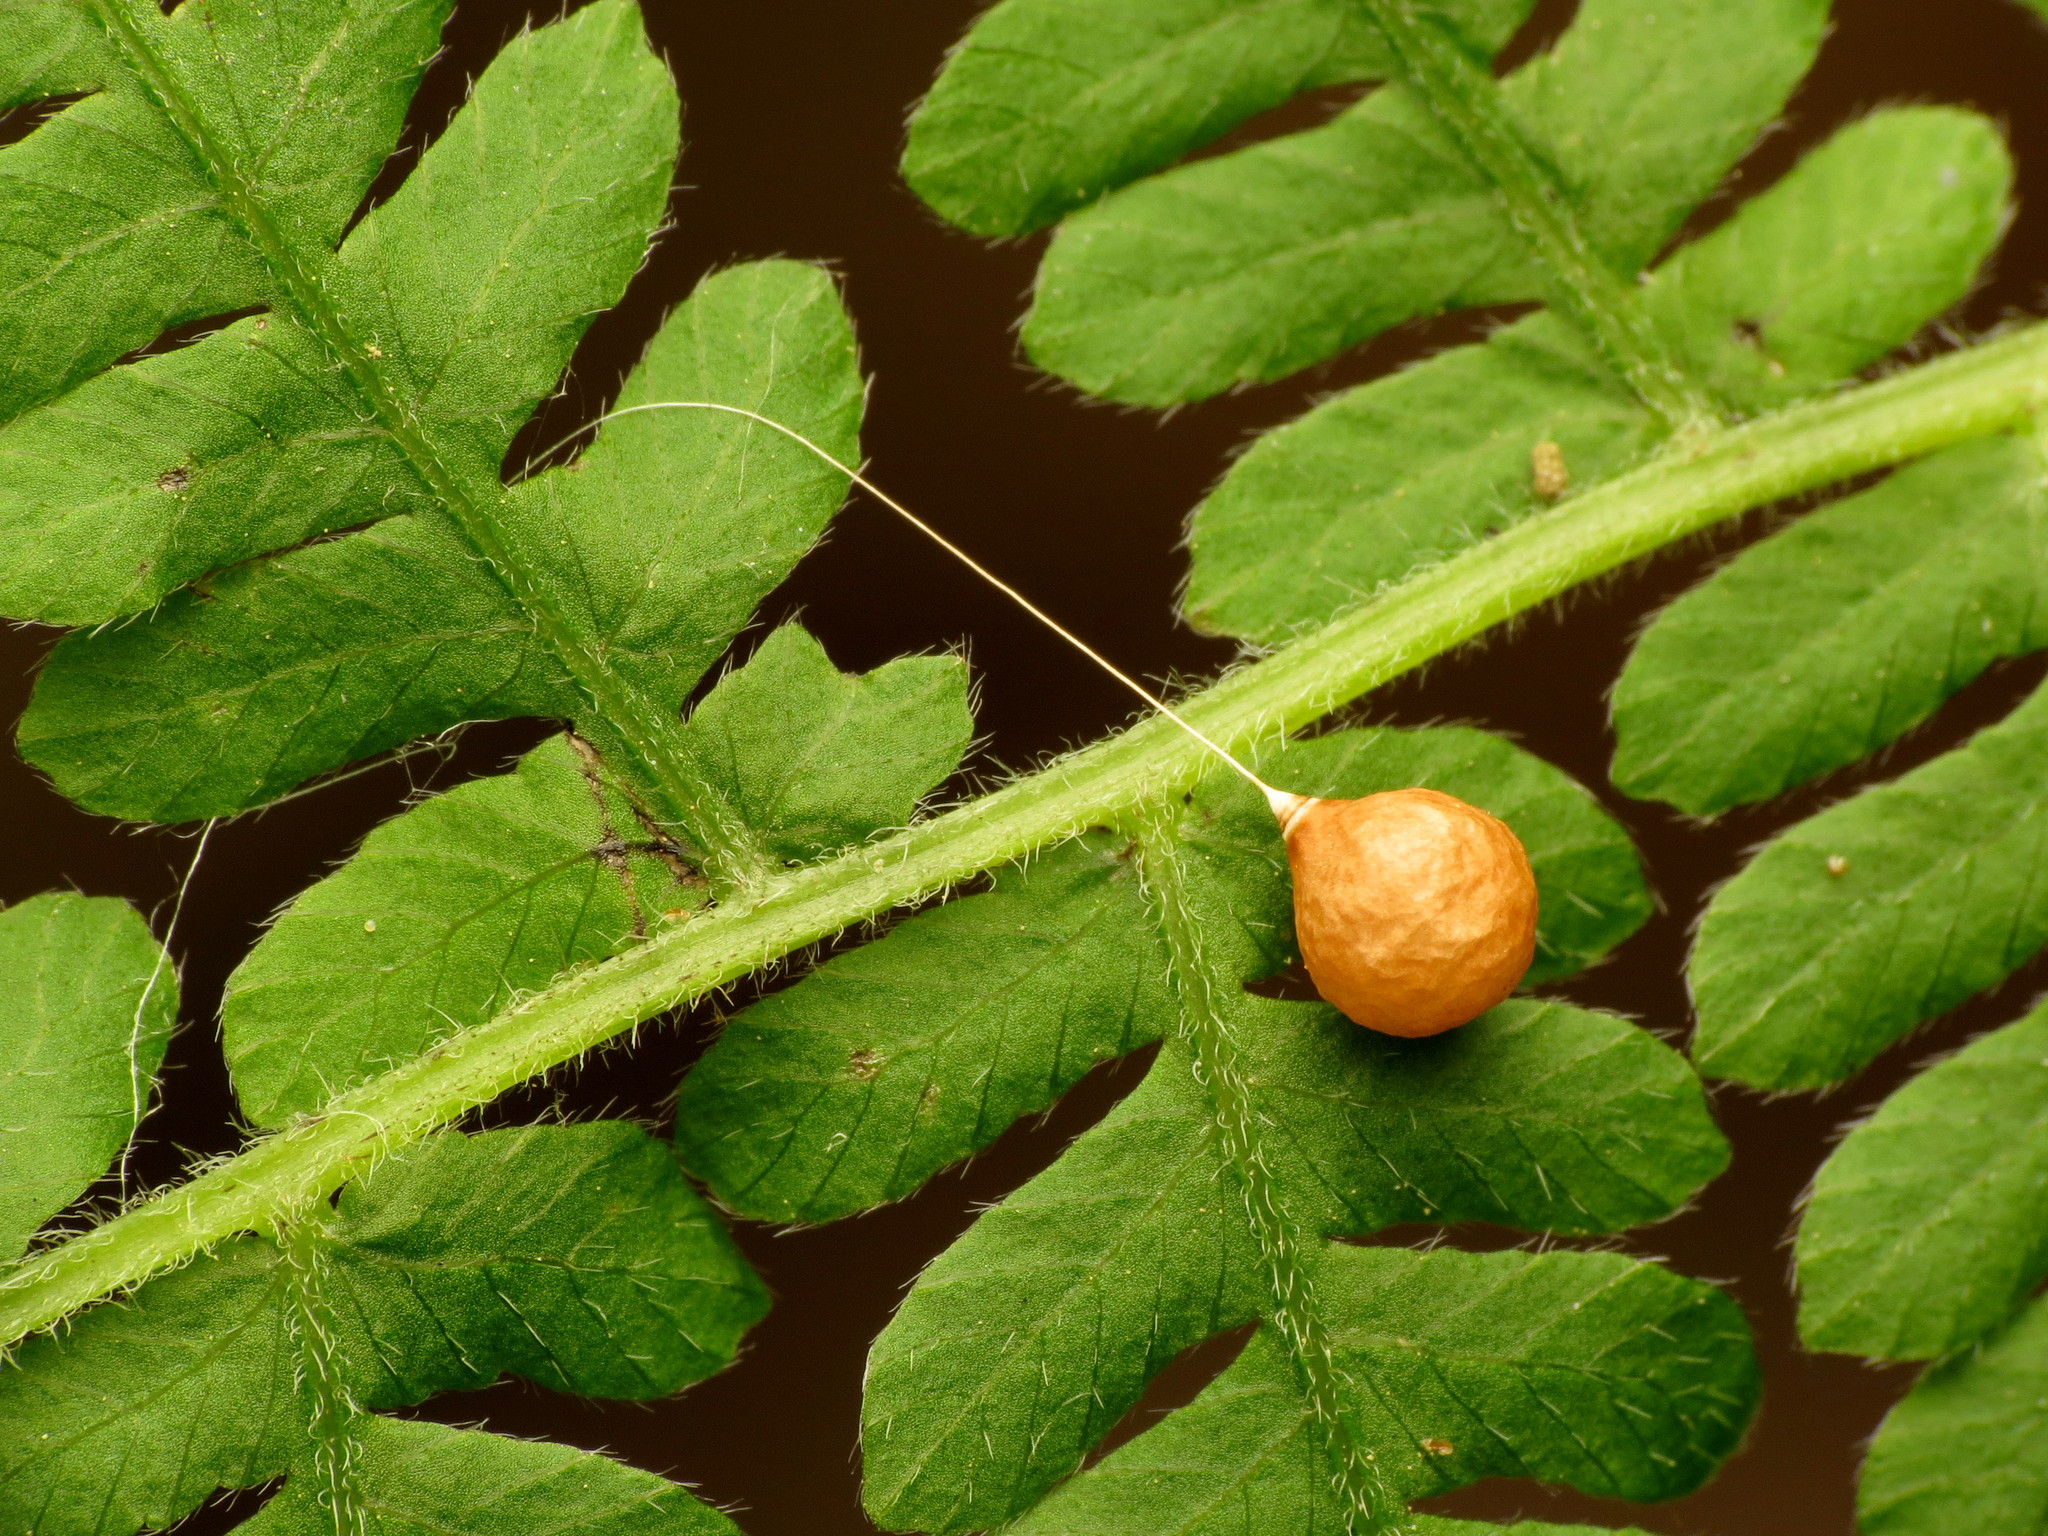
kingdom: Animalia
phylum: Arthropoda
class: Arachnida
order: Araneae
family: Theridiosomatidae
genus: Theridiosoma
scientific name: Theridiosoma gemmosum
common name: Ray spider
